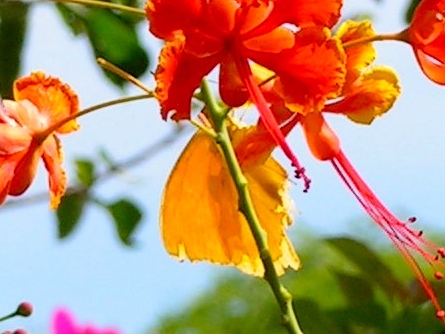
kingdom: Animalia
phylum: Arthropoda
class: Insecta
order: Lepidoptera
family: Pieridae
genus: Phoebis
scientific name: Phoebis
